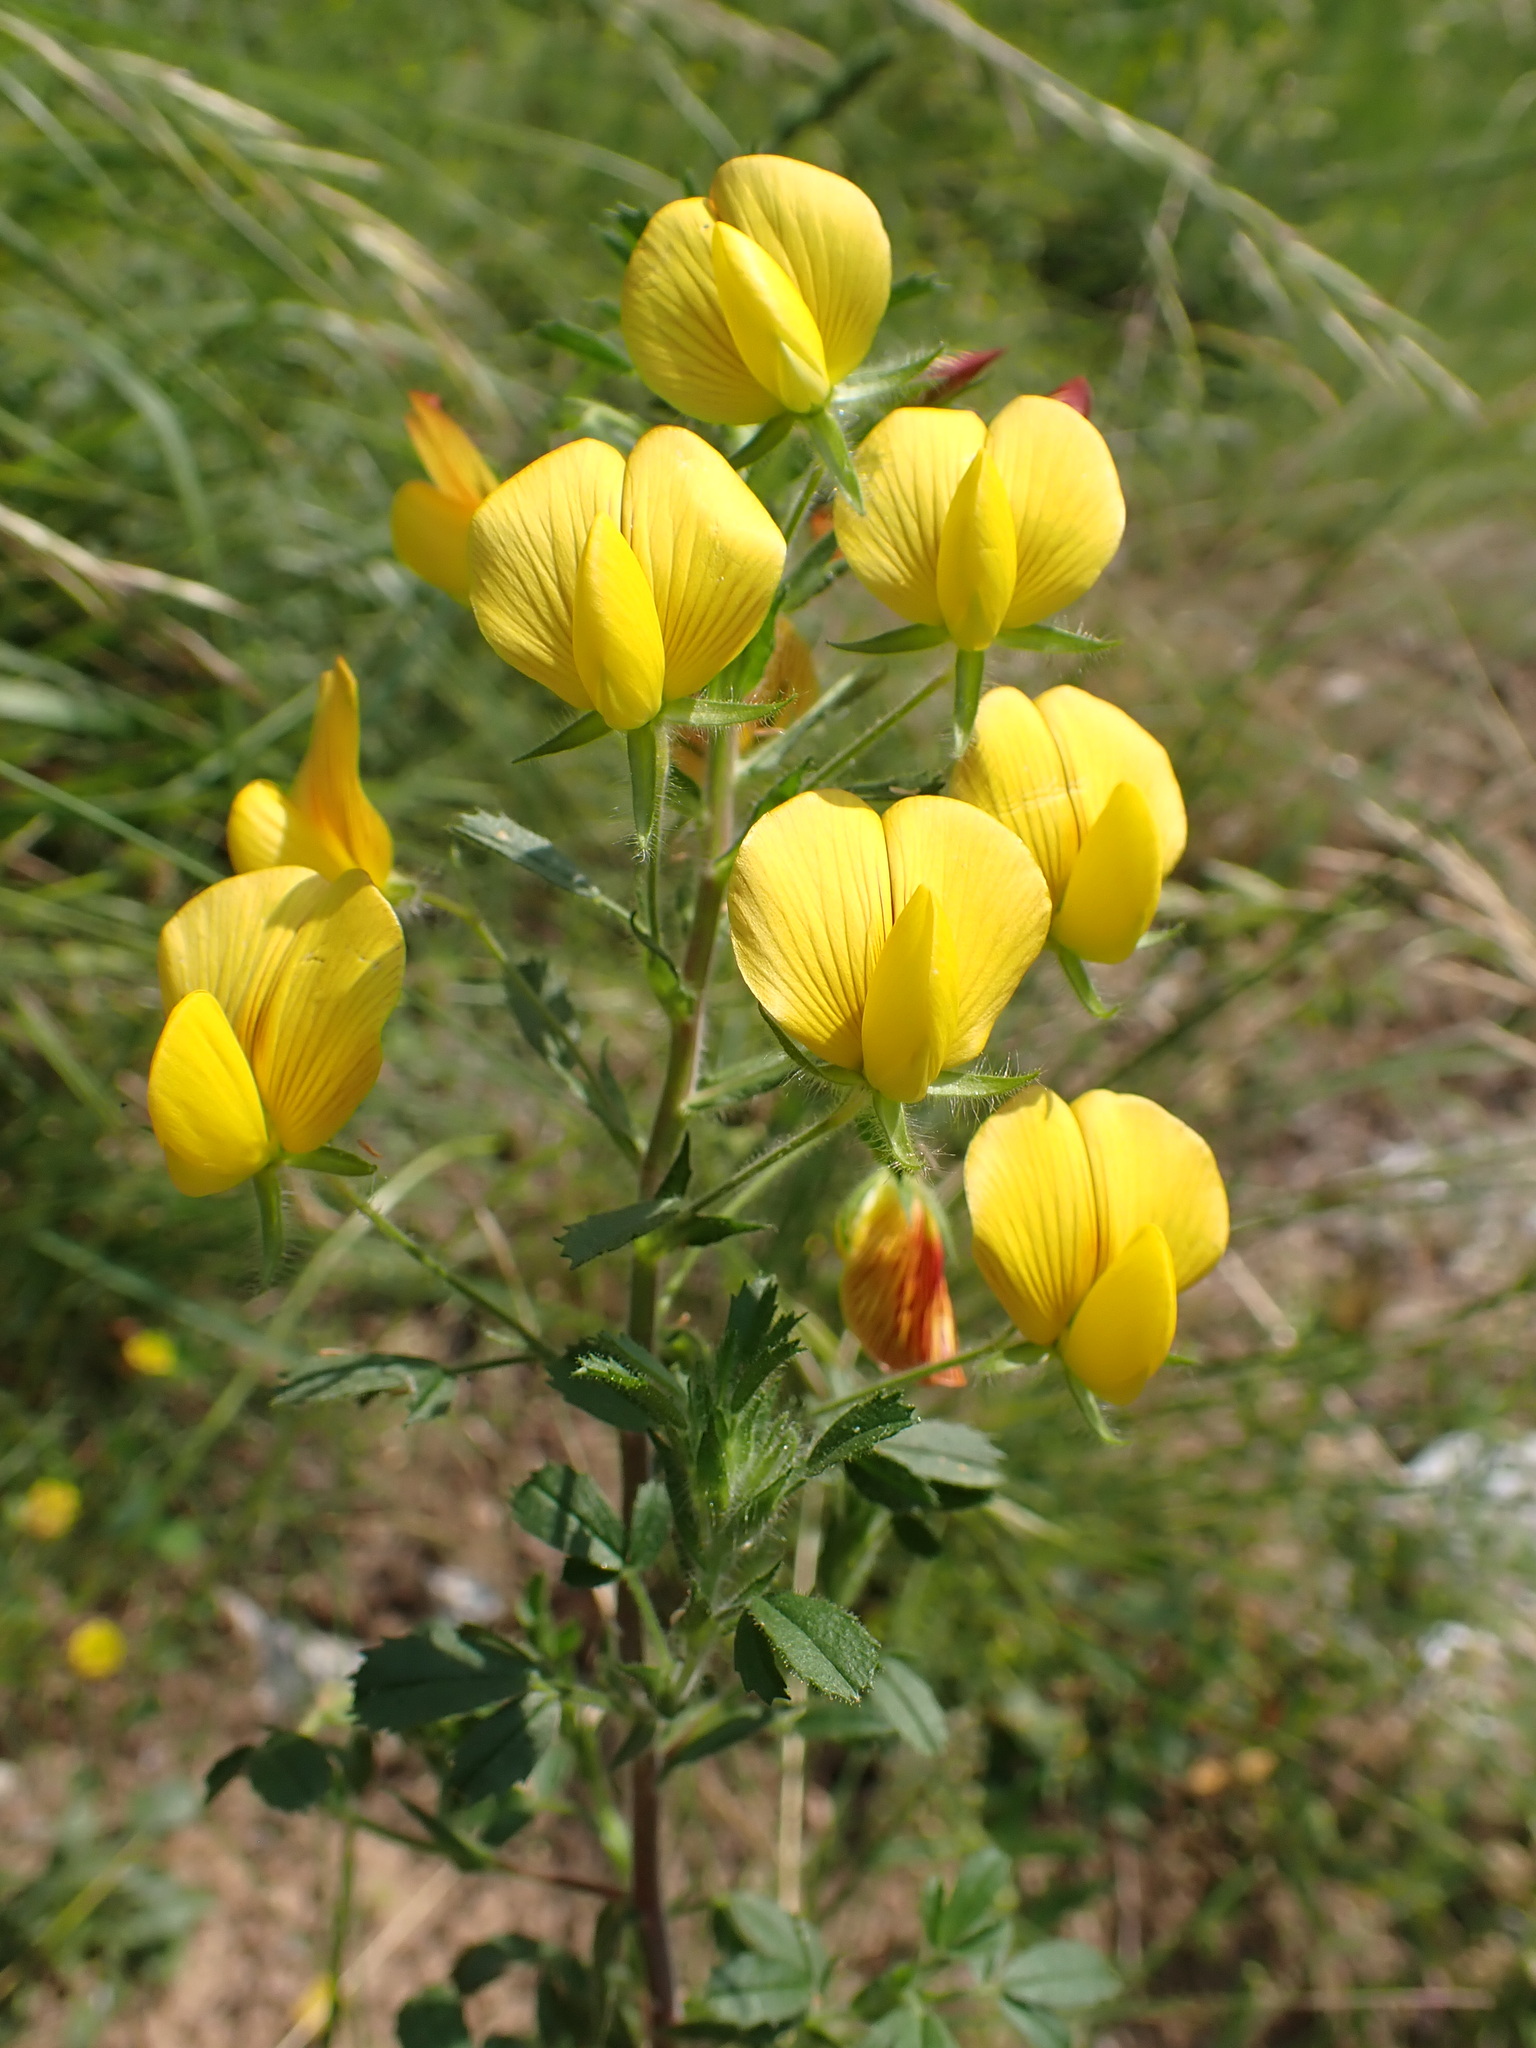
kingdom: Plantae
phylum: Tracheophyta
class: Magnoliopsida
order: Fabales
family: Fabaceae
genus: Ononis
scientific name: Ononis natrix
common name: Yellow restharrow
